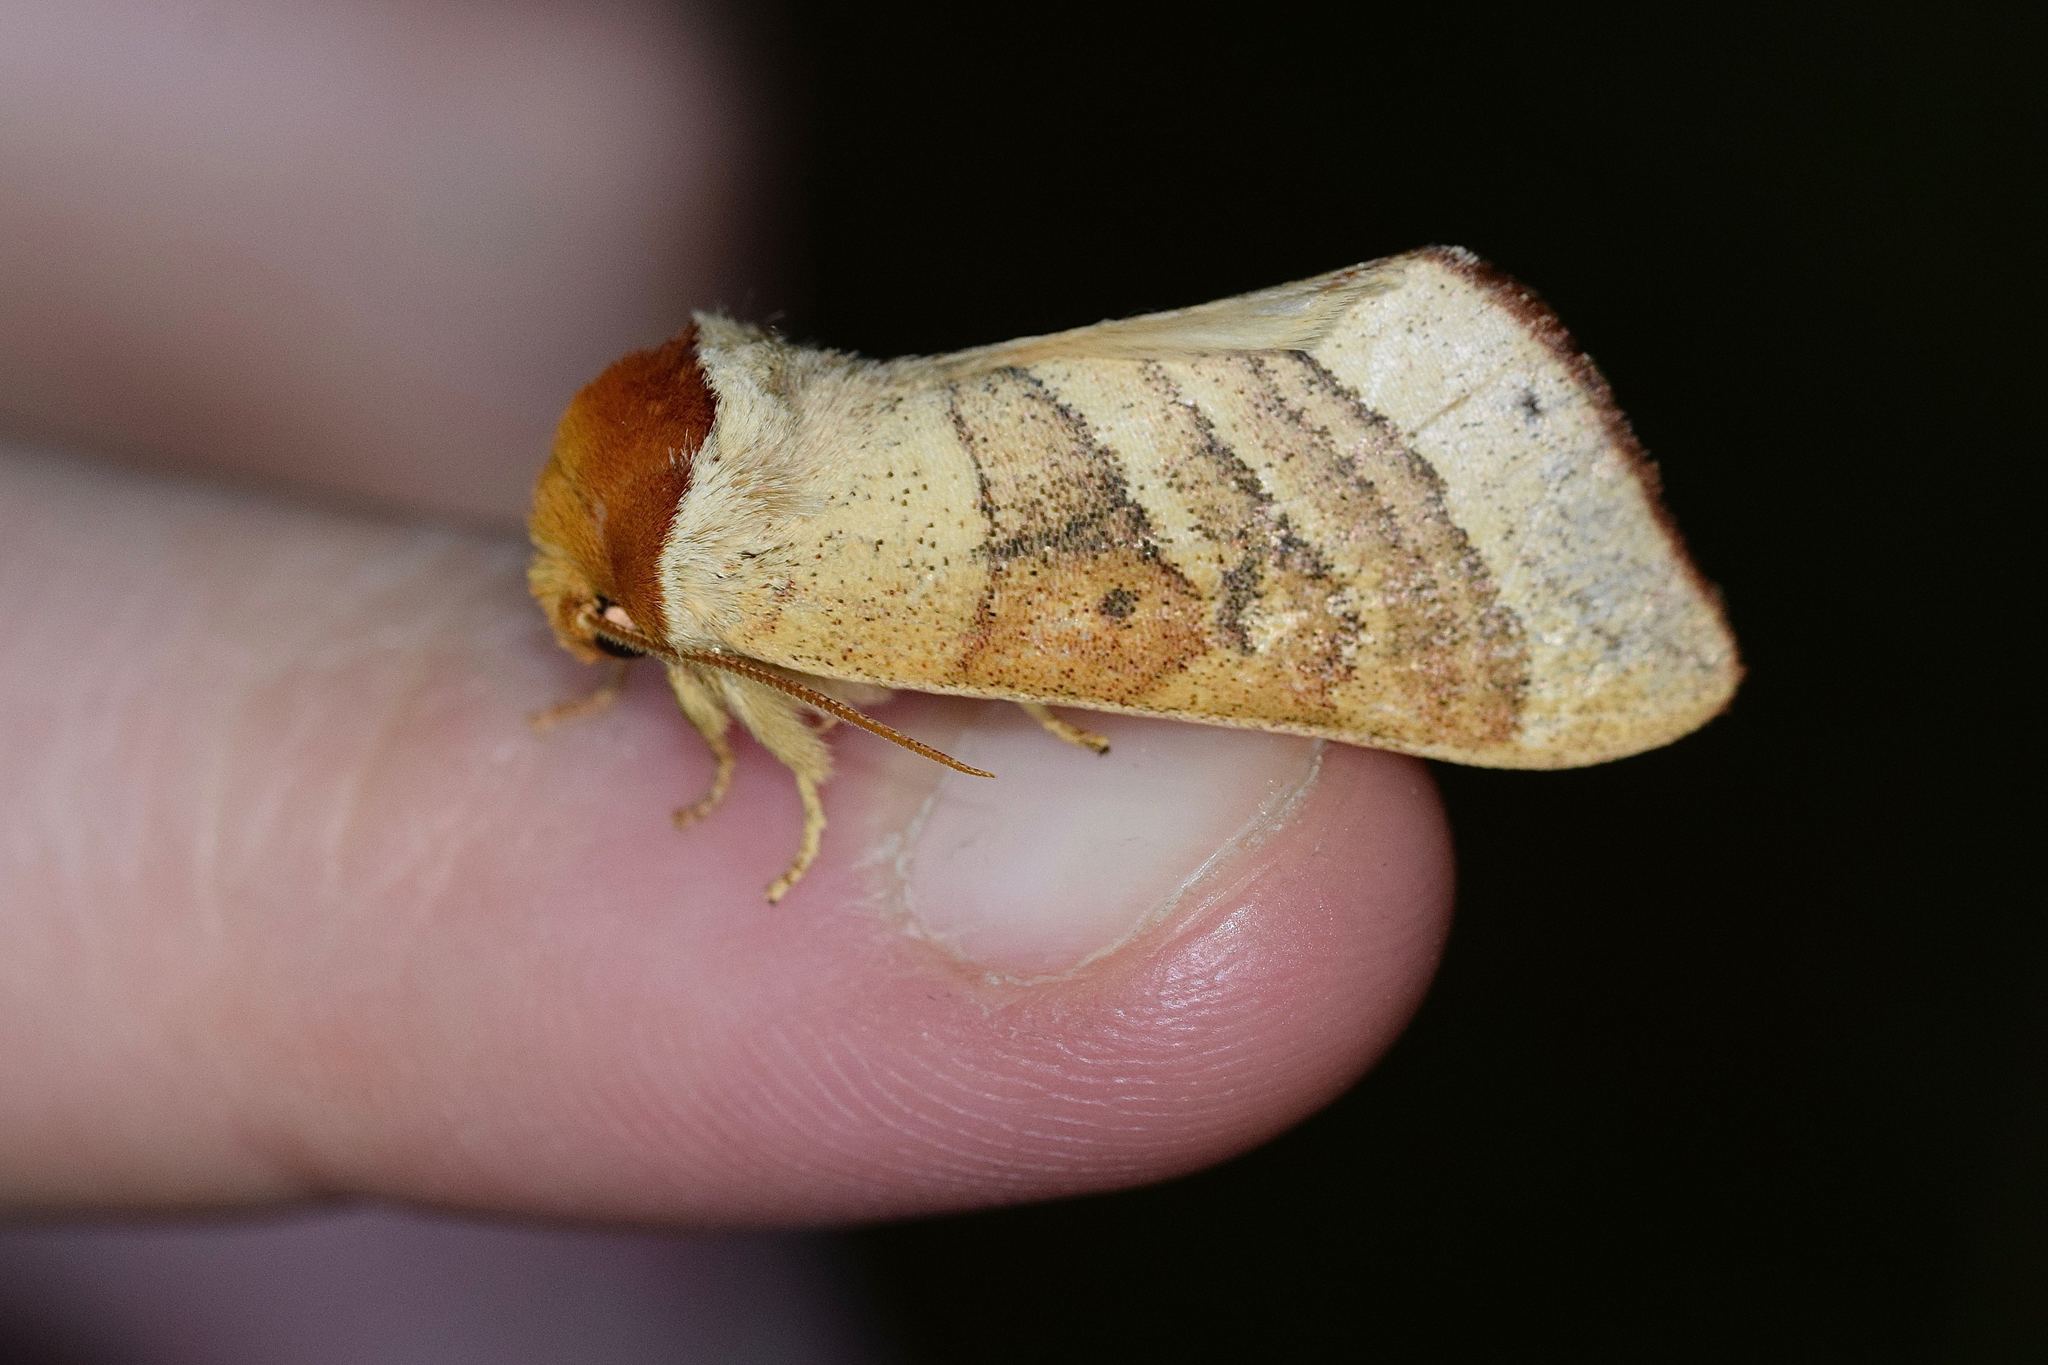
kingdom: Animalia
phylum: Arthropoda
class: Insecta
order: Lepidoptera
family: Notodontidae
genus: Datana
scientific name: Datana contracta
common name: Contracted datana
